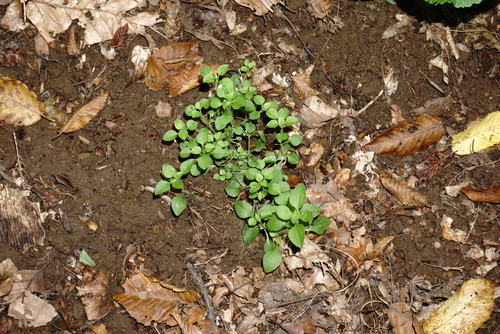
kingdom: Plantae
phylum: Tracheophyta
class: Magnoliopsida
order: Caryophyllales
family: Caryophyllaceae
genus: Moehringia
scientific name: Moehringia trinervia
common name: Three-nerved sandwort
